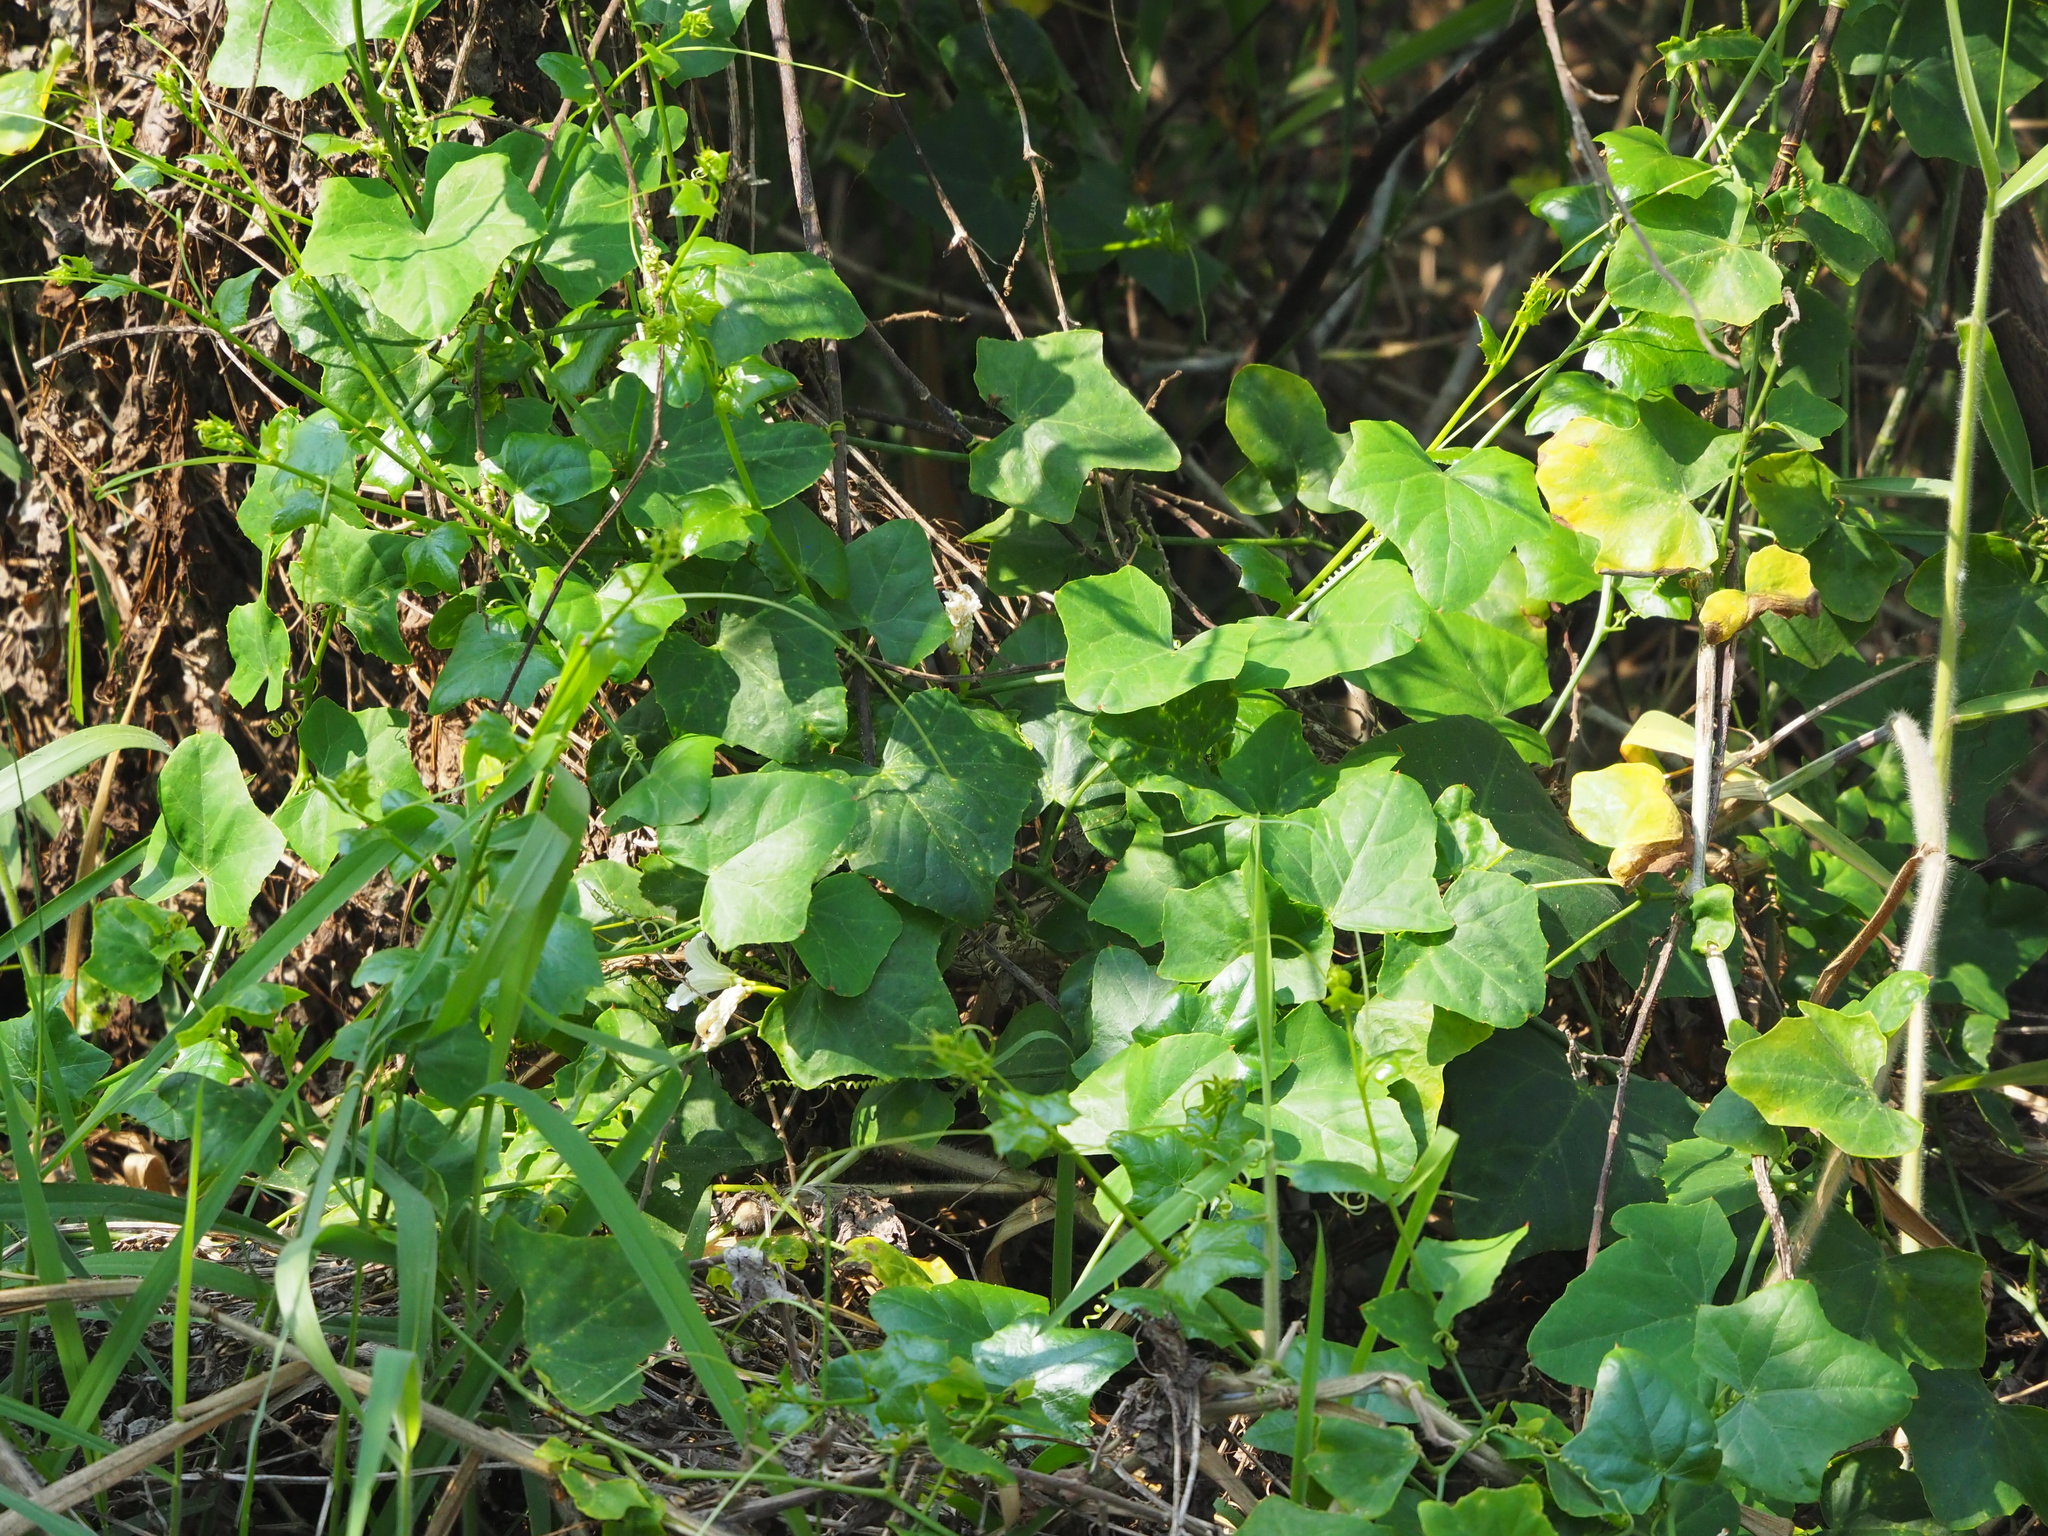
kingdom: Plantae
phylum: Tracheophyta
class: Magnoliopsida
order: Cucurbitales
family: Cucurbitaceae
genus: Coccinia
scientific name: Coccinia grandis
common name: Ivy gourd
